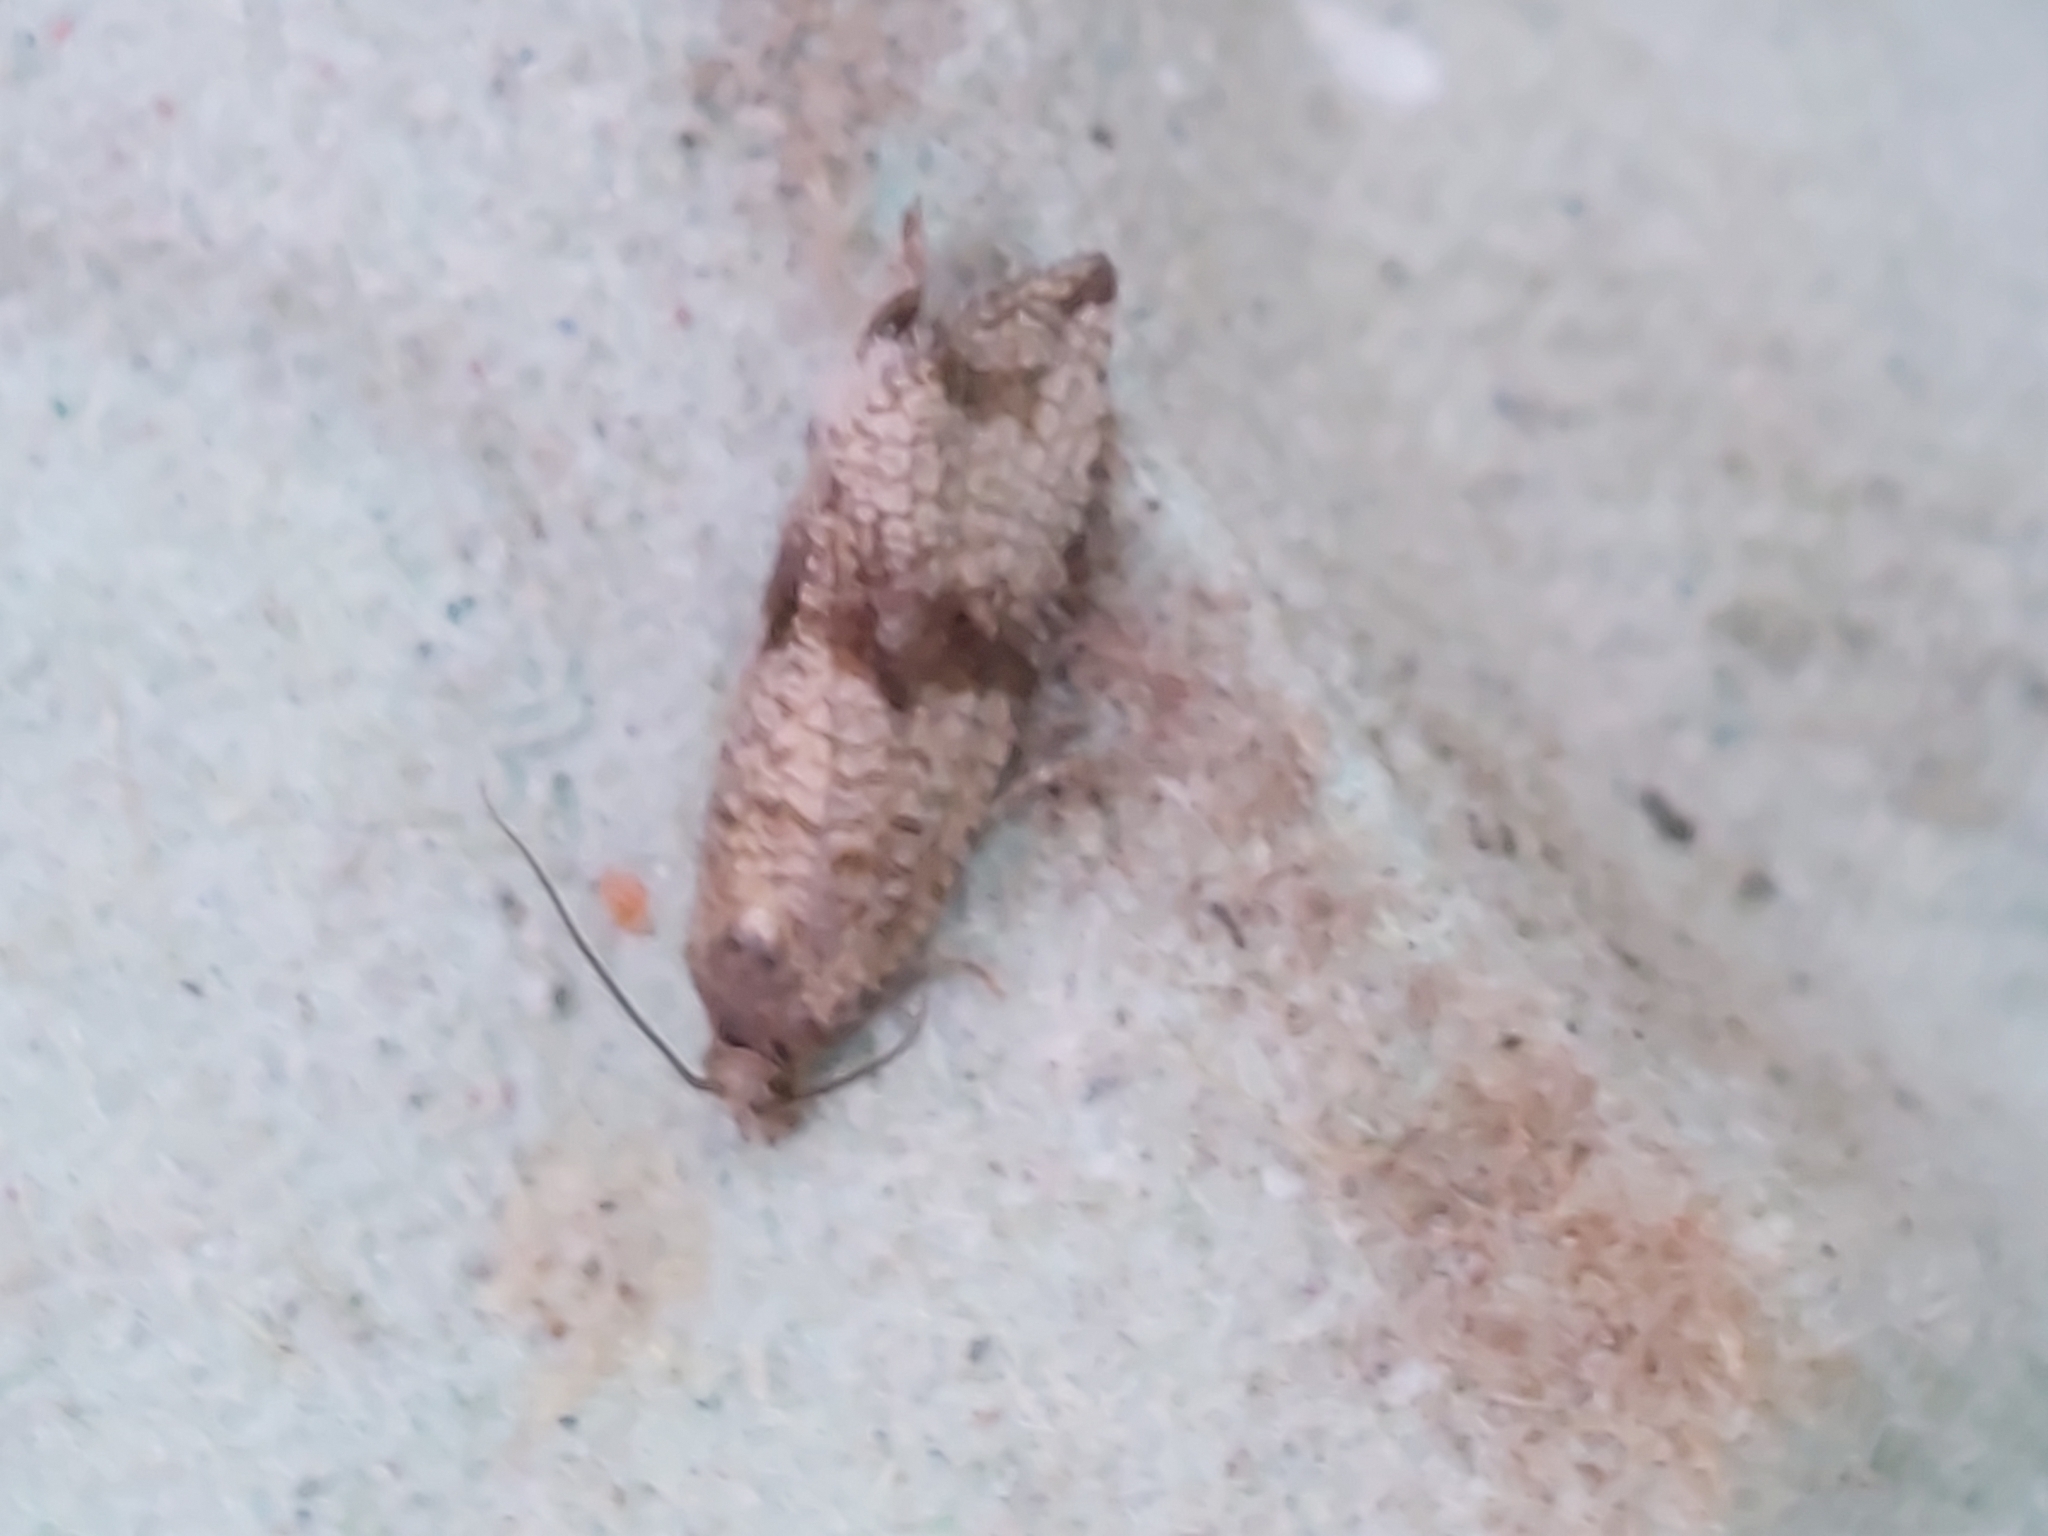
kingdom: Animalia
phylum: Arthropoda
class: Insecta
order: Lepidoptera
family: Tortricidae
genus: Celypha
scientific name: Celypha striana
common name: Barred marble
